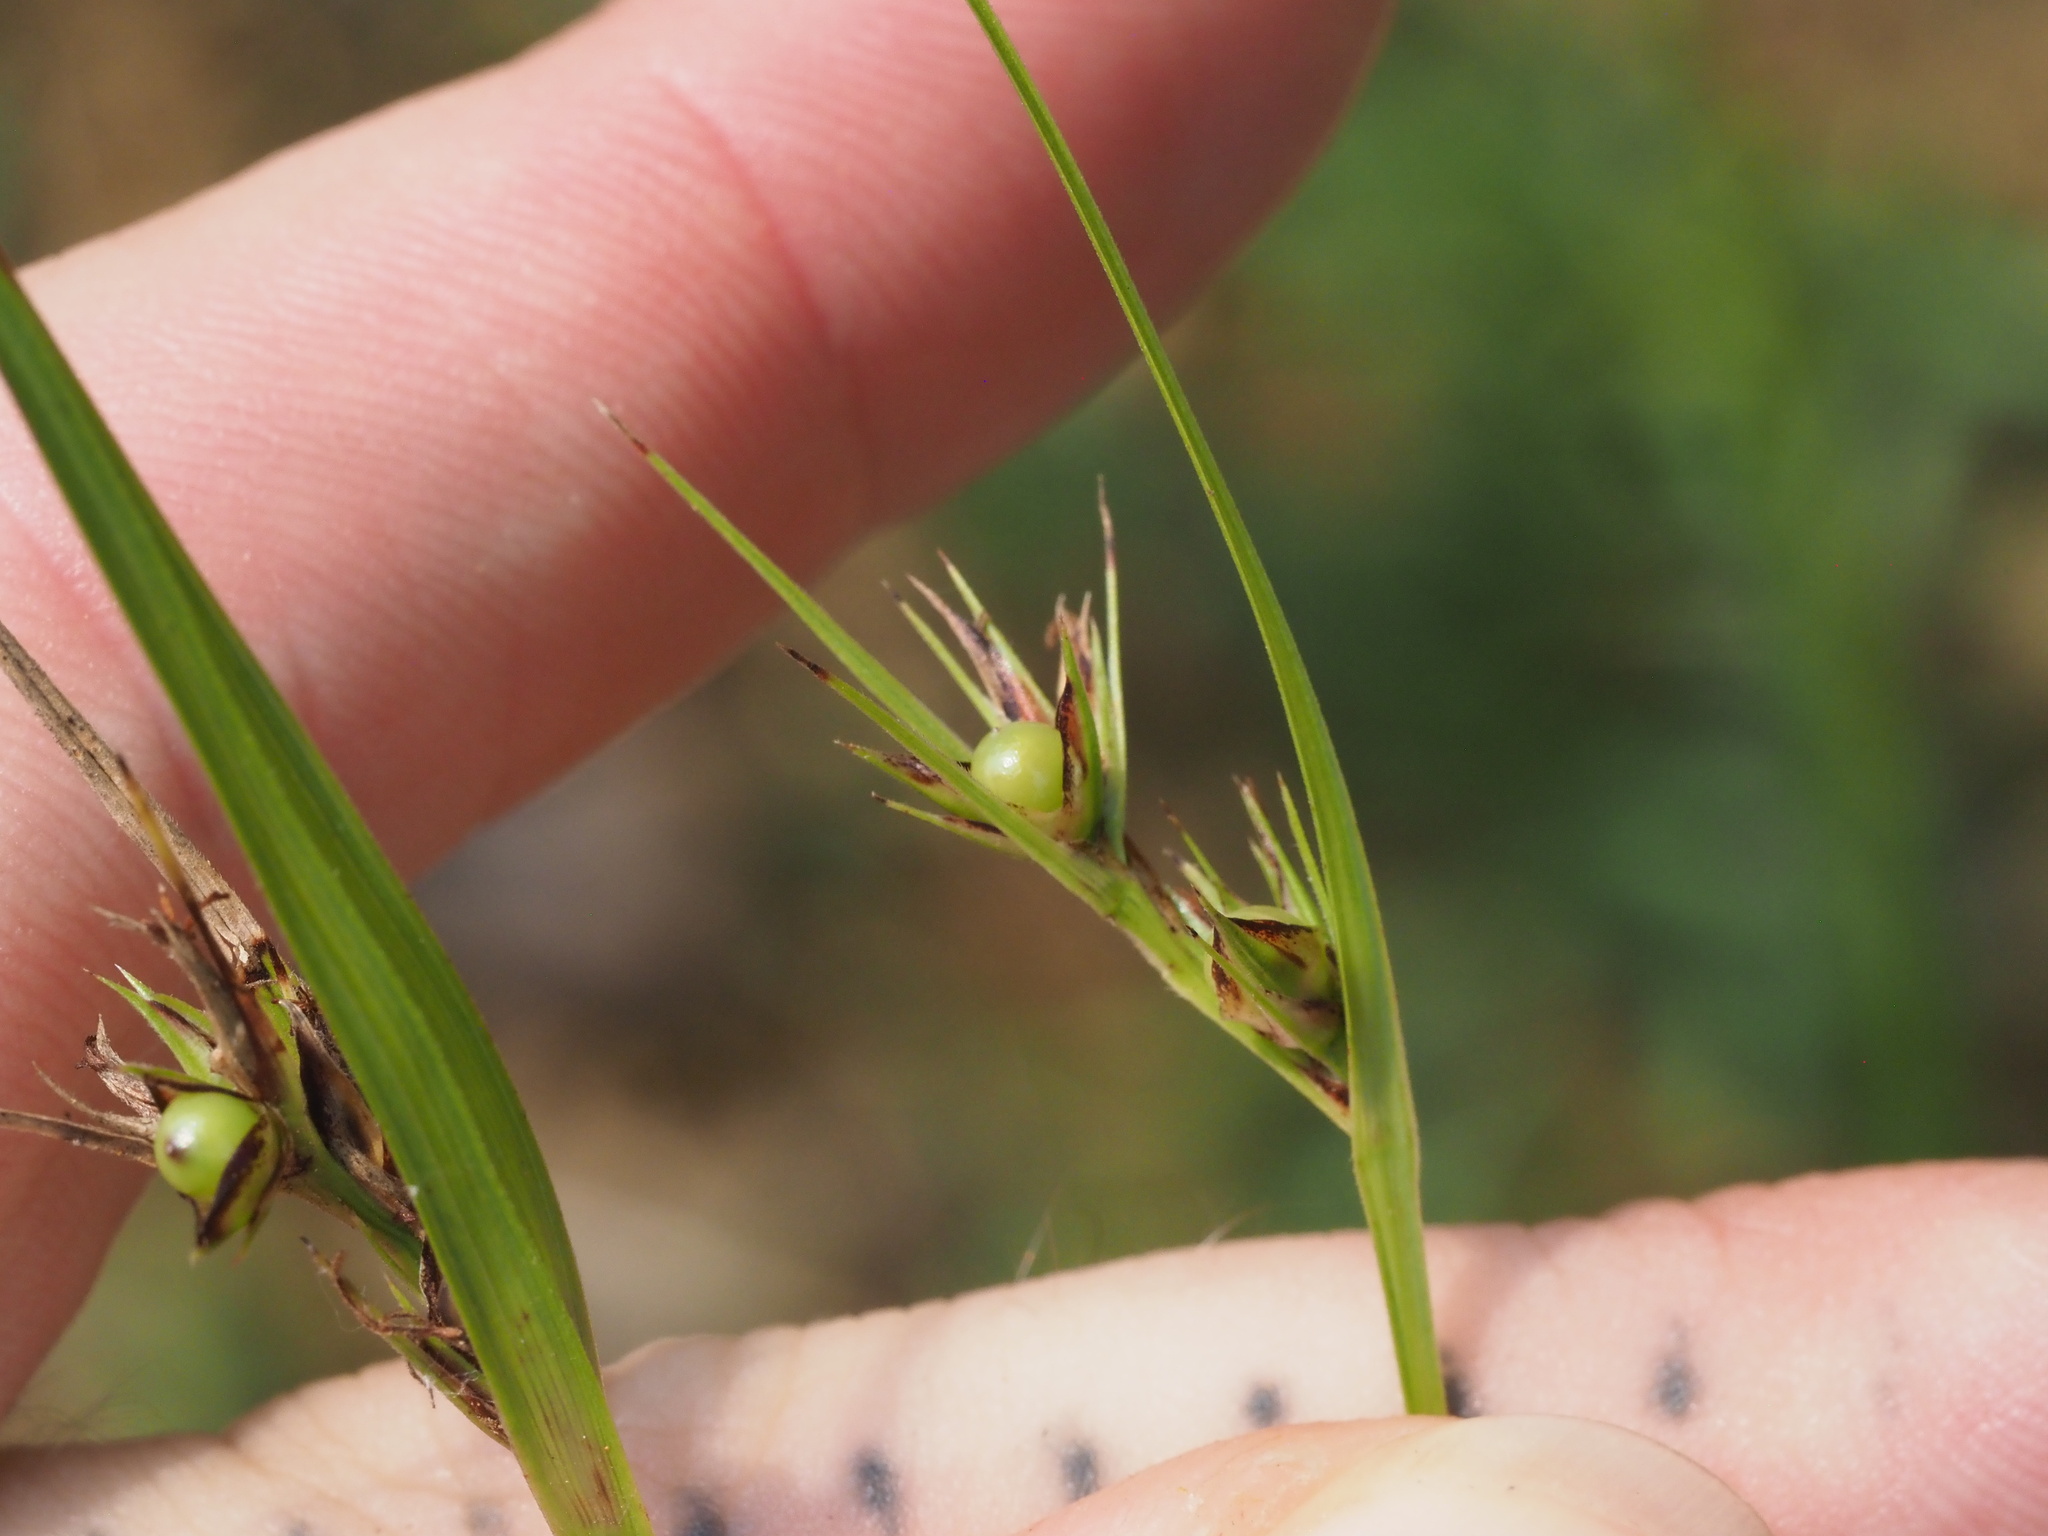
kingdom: Plantae
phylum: Tracheophyta
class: Liliopsida
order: Poales
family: Cyperaceae
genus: Scleria
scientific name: Scleria triglomerata
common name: Whip nutrush
